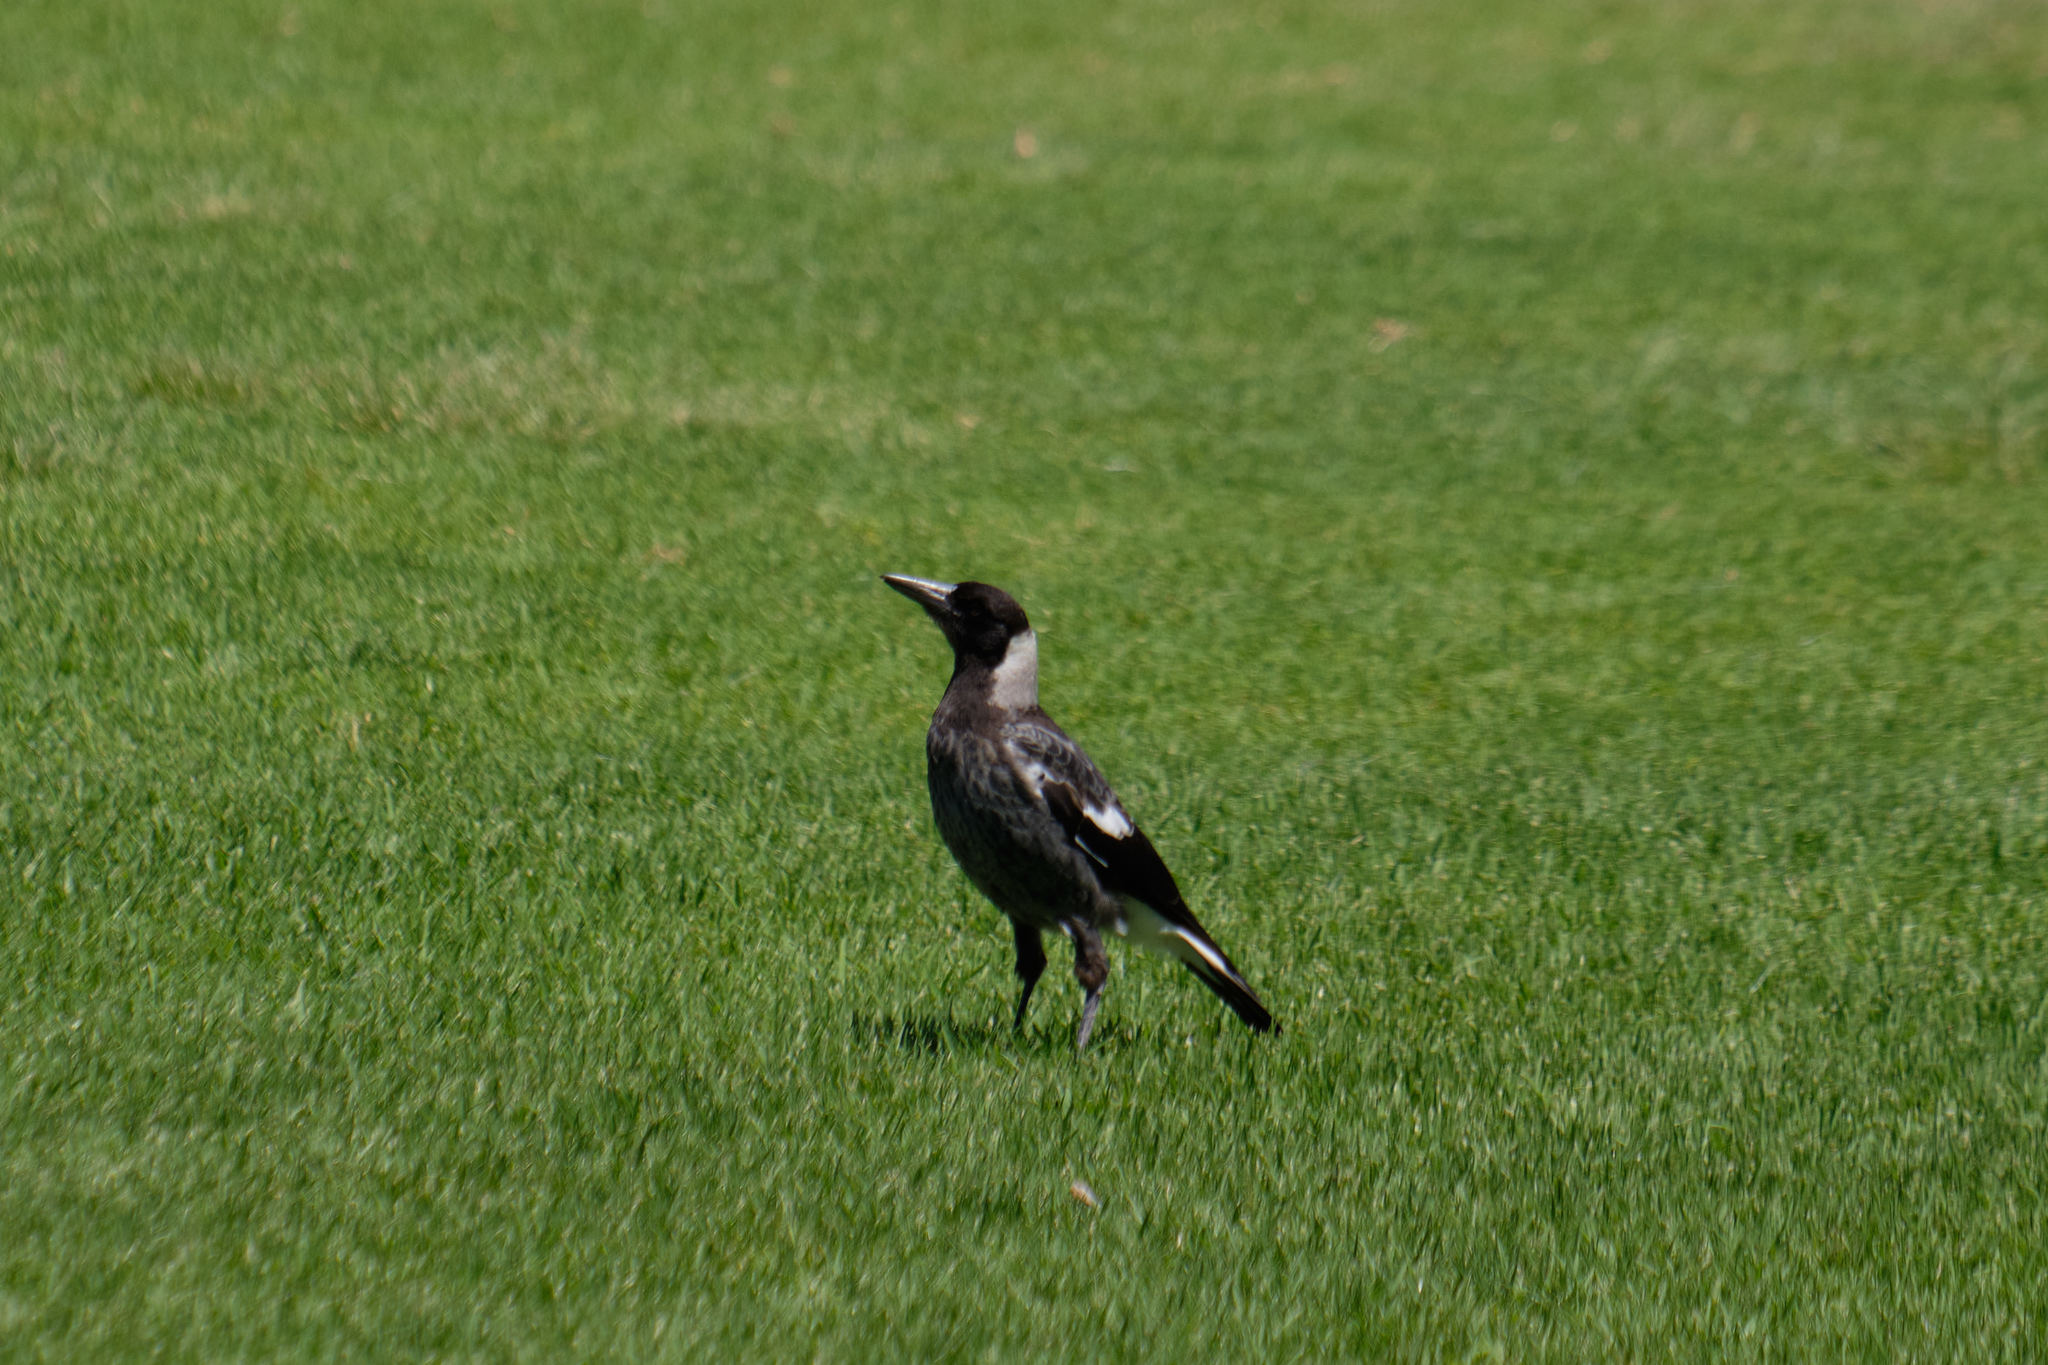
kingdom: Animalia
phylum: Chordata
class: Aves
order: Passeriformes
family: Cracticidae
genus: Gymnorhina
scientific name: Gymnorhina tibicen
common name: Australian magpie
